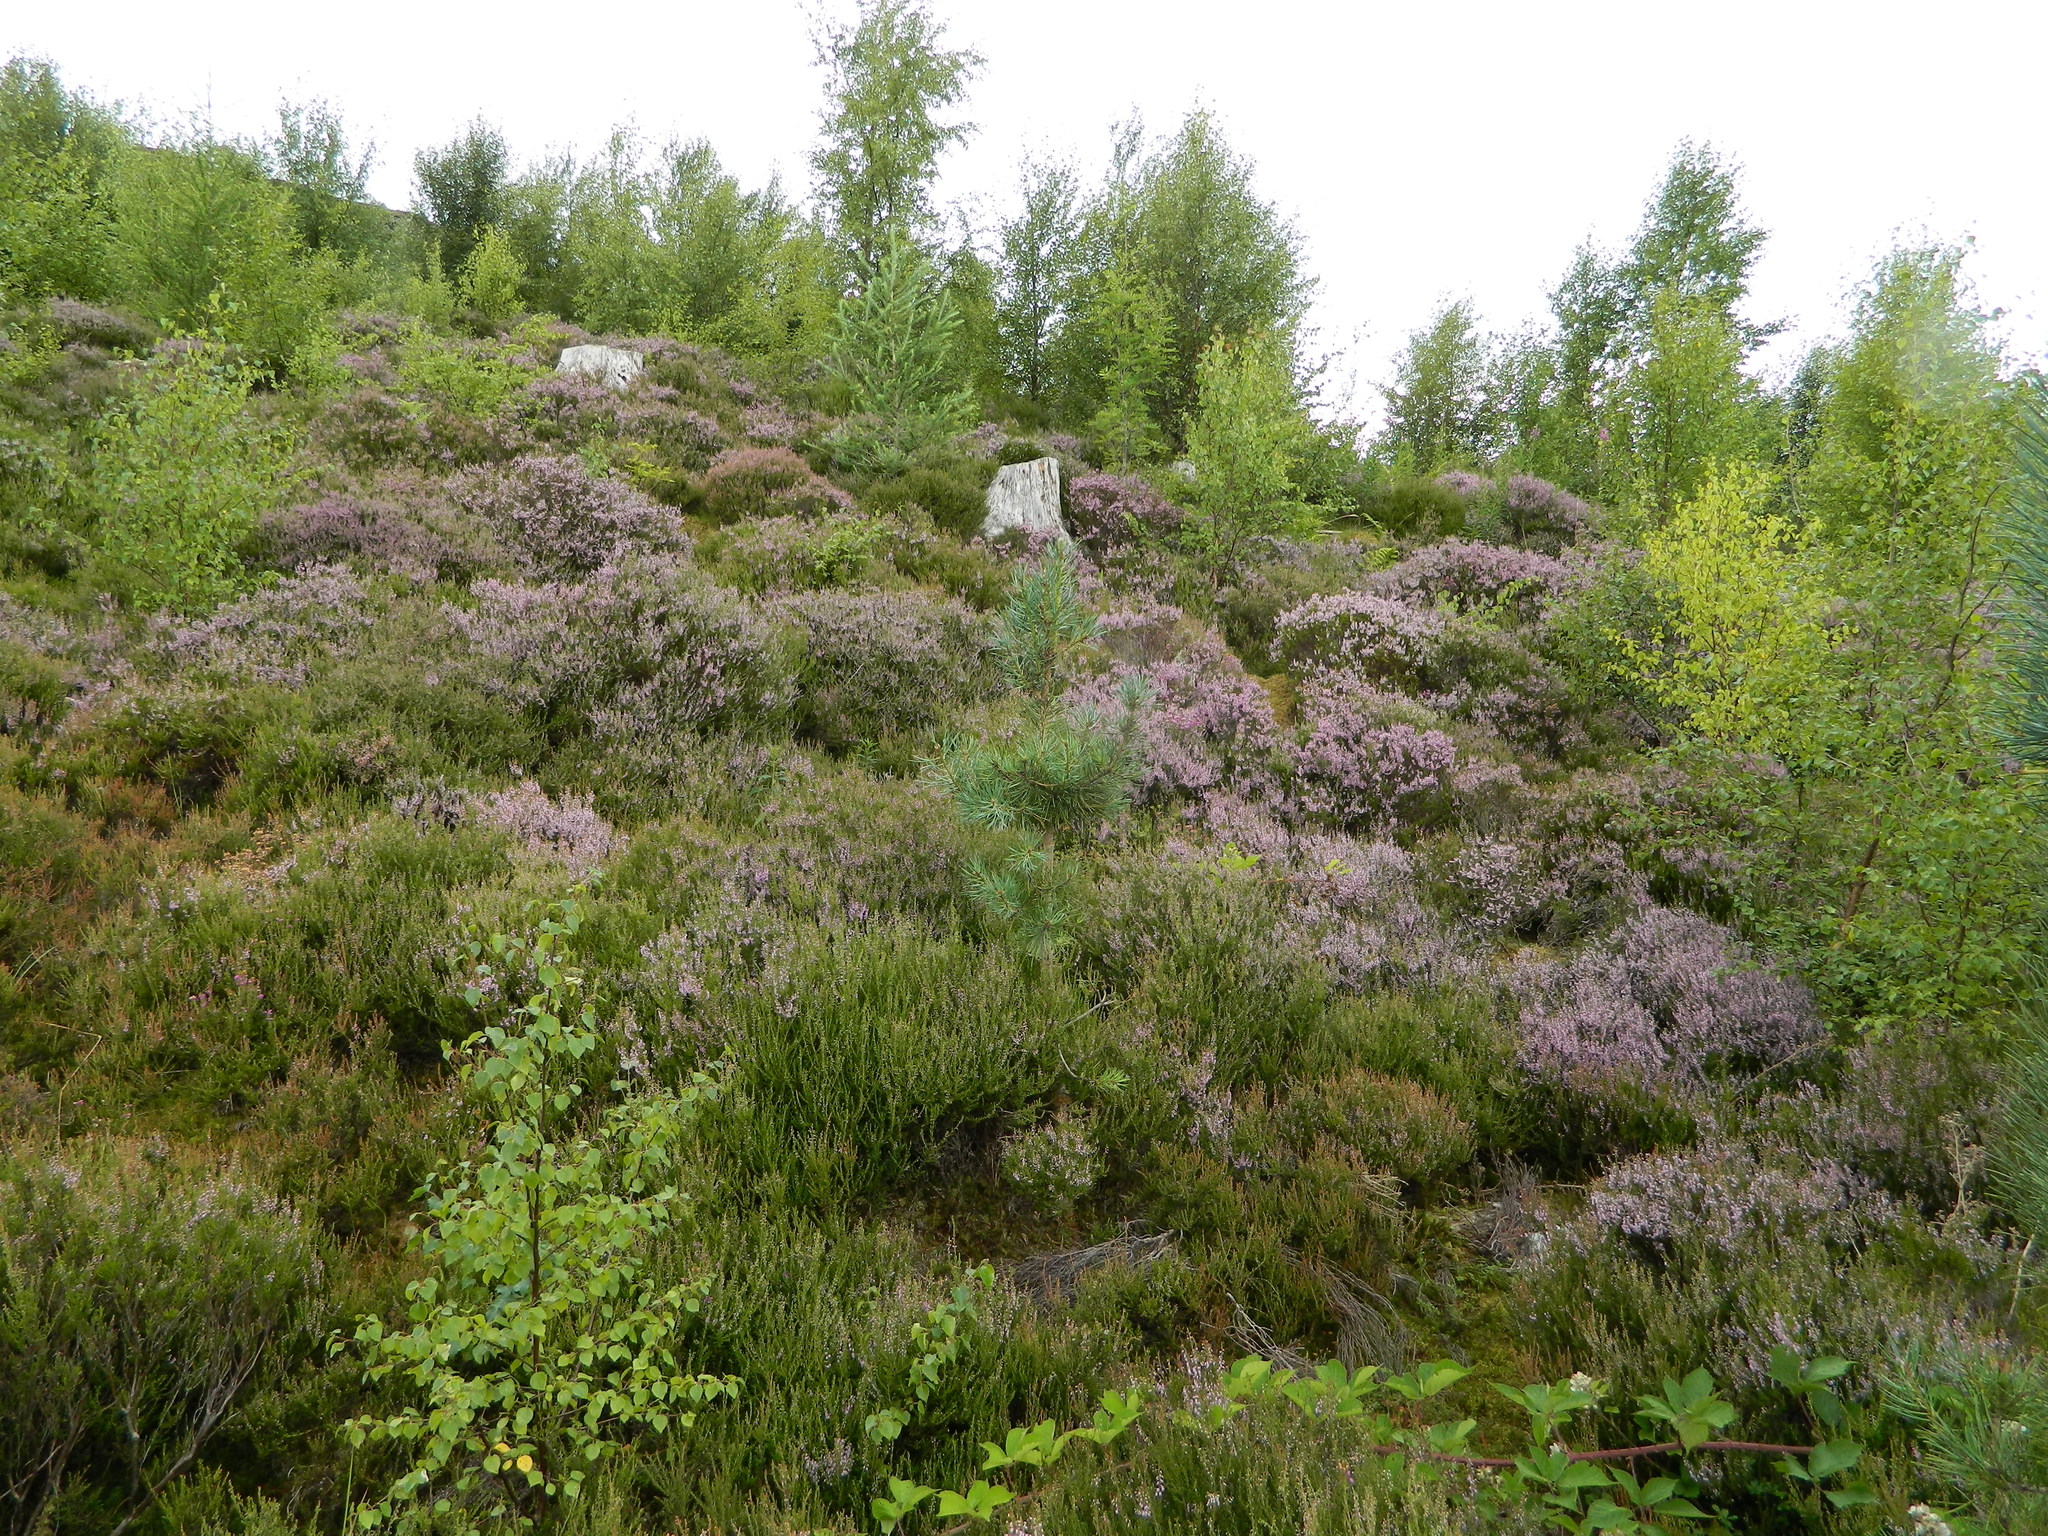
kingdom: Plantae
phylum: Tracheophyta
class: Magnoliopsida
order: Ericales
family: Ericaceae
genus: Calluna
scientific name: Calluna vulgaris
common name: Heather
